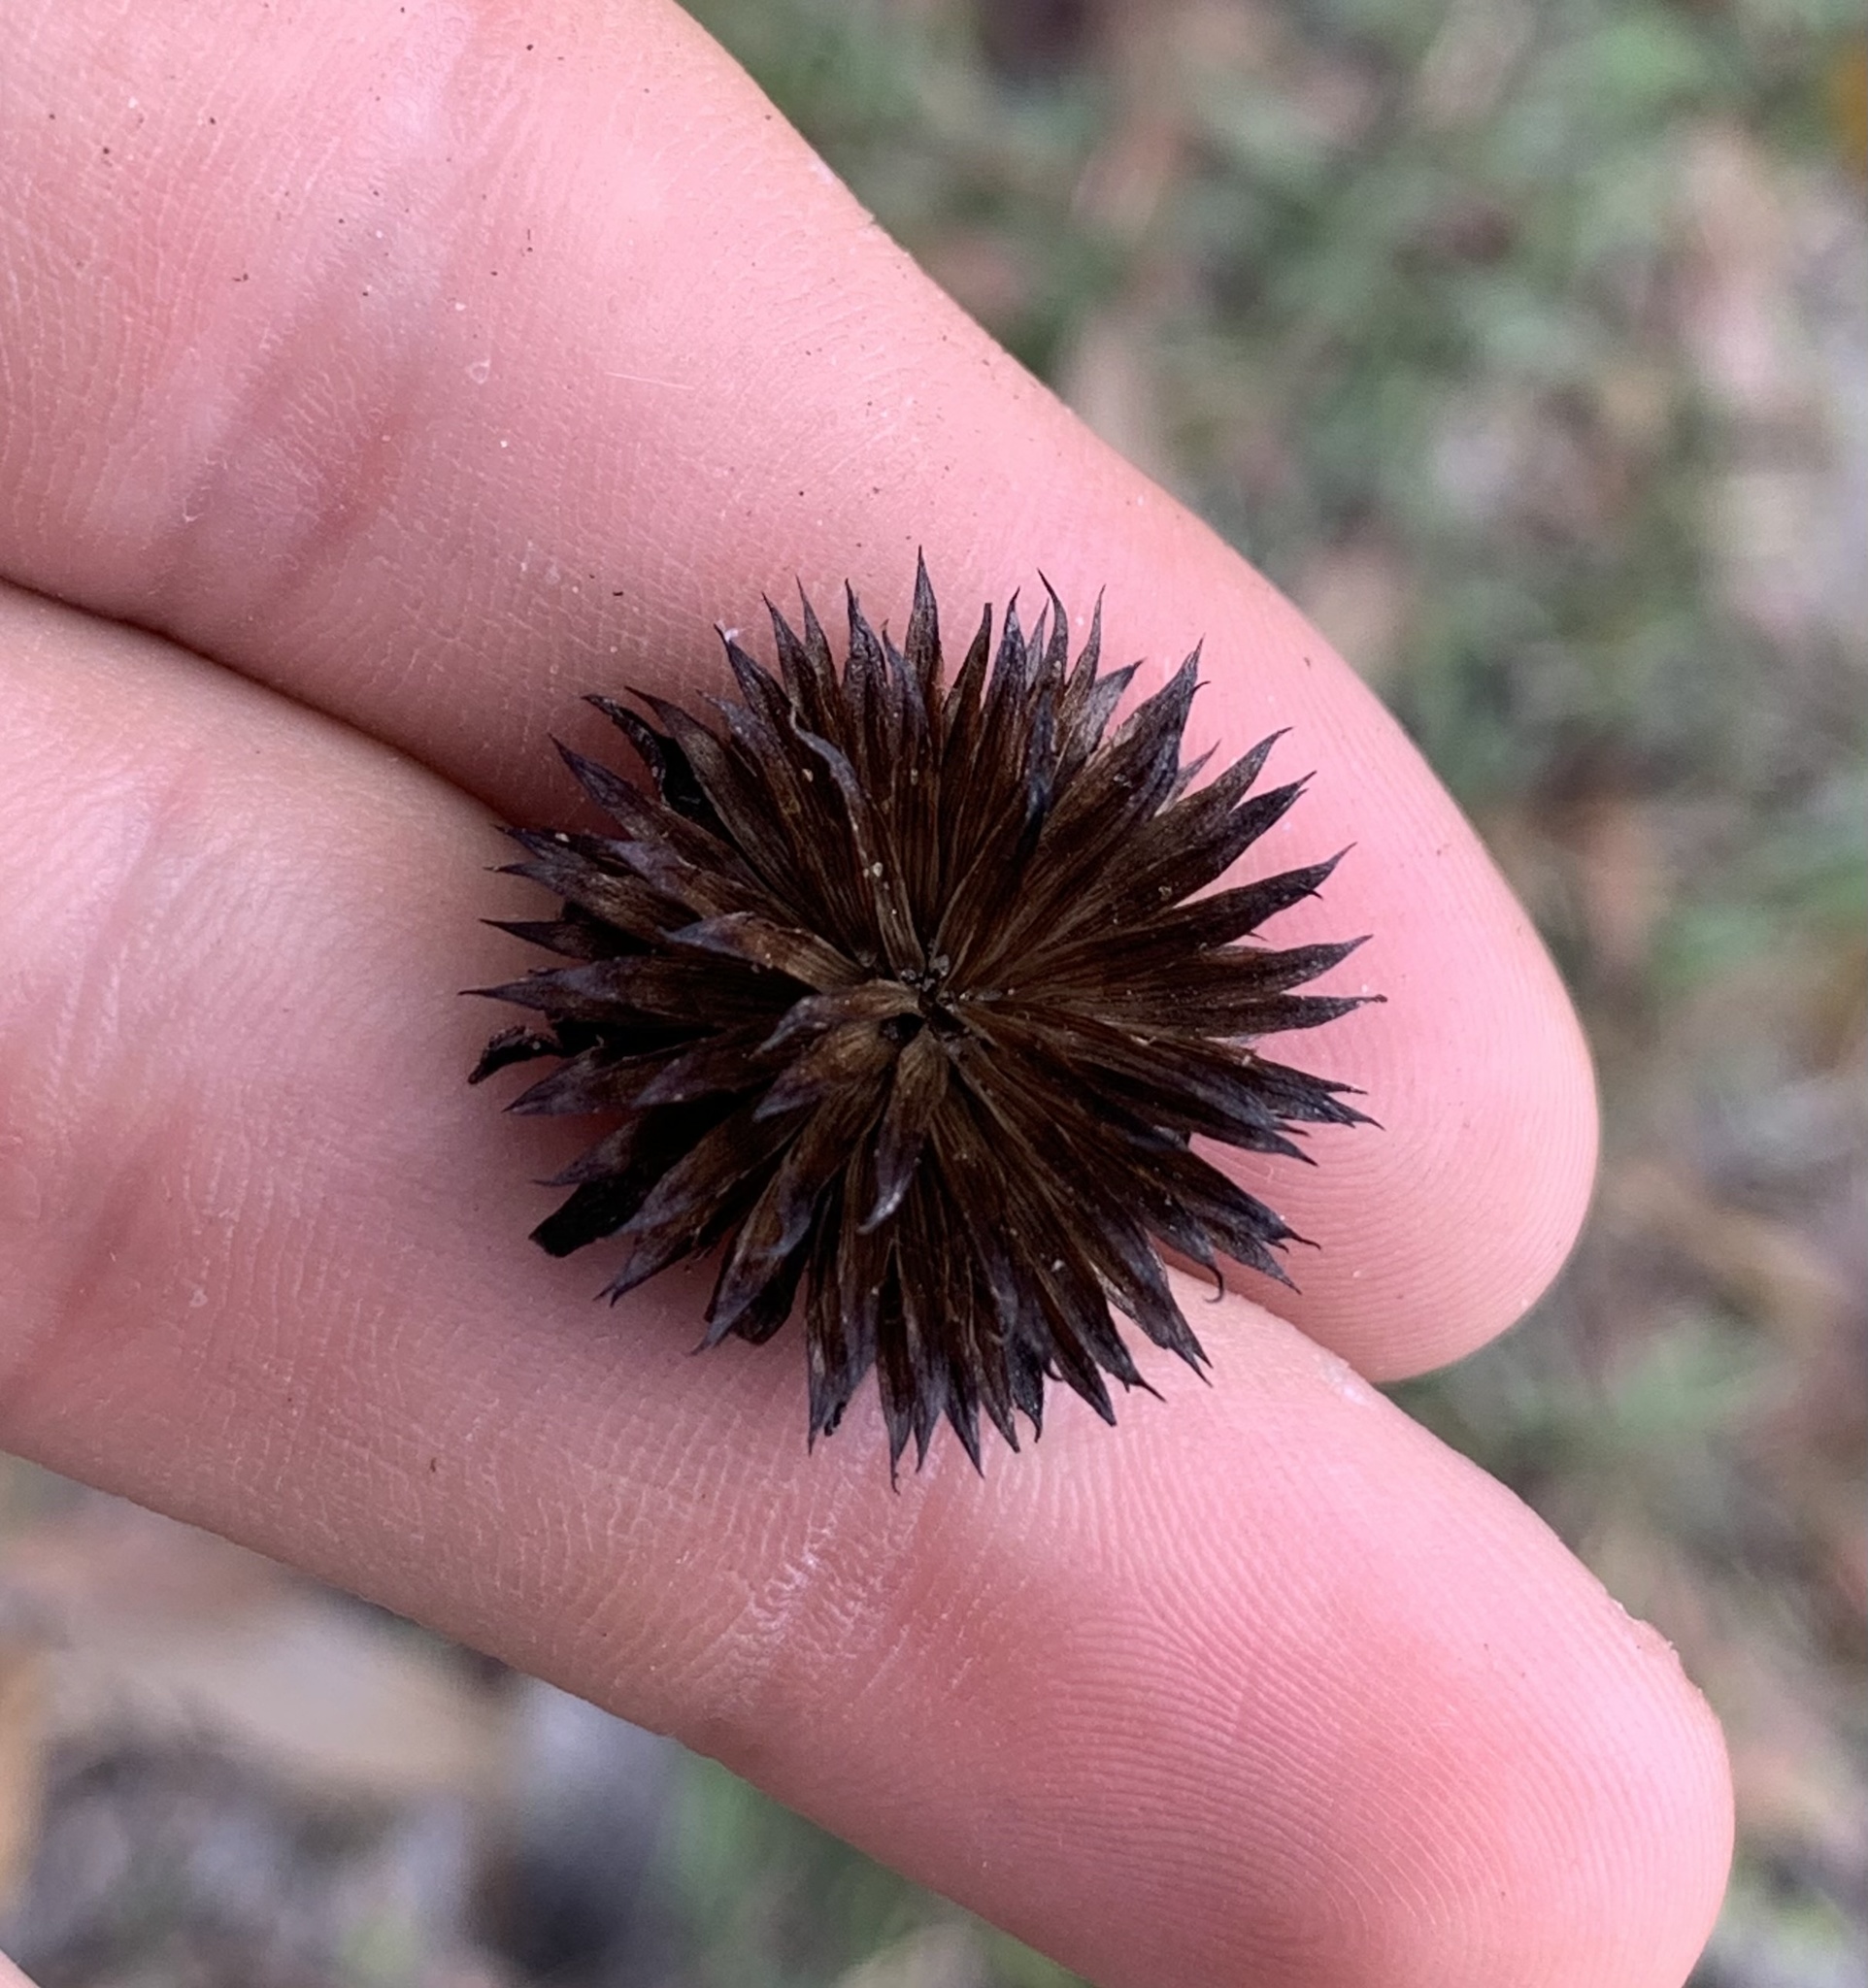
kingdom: Plantae
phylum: Tracheophyta
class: Magnoliopsida
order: Asterales
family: Asteraceae
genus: Helianthus
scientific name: Helianthus radula
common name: Pineland sunflower
